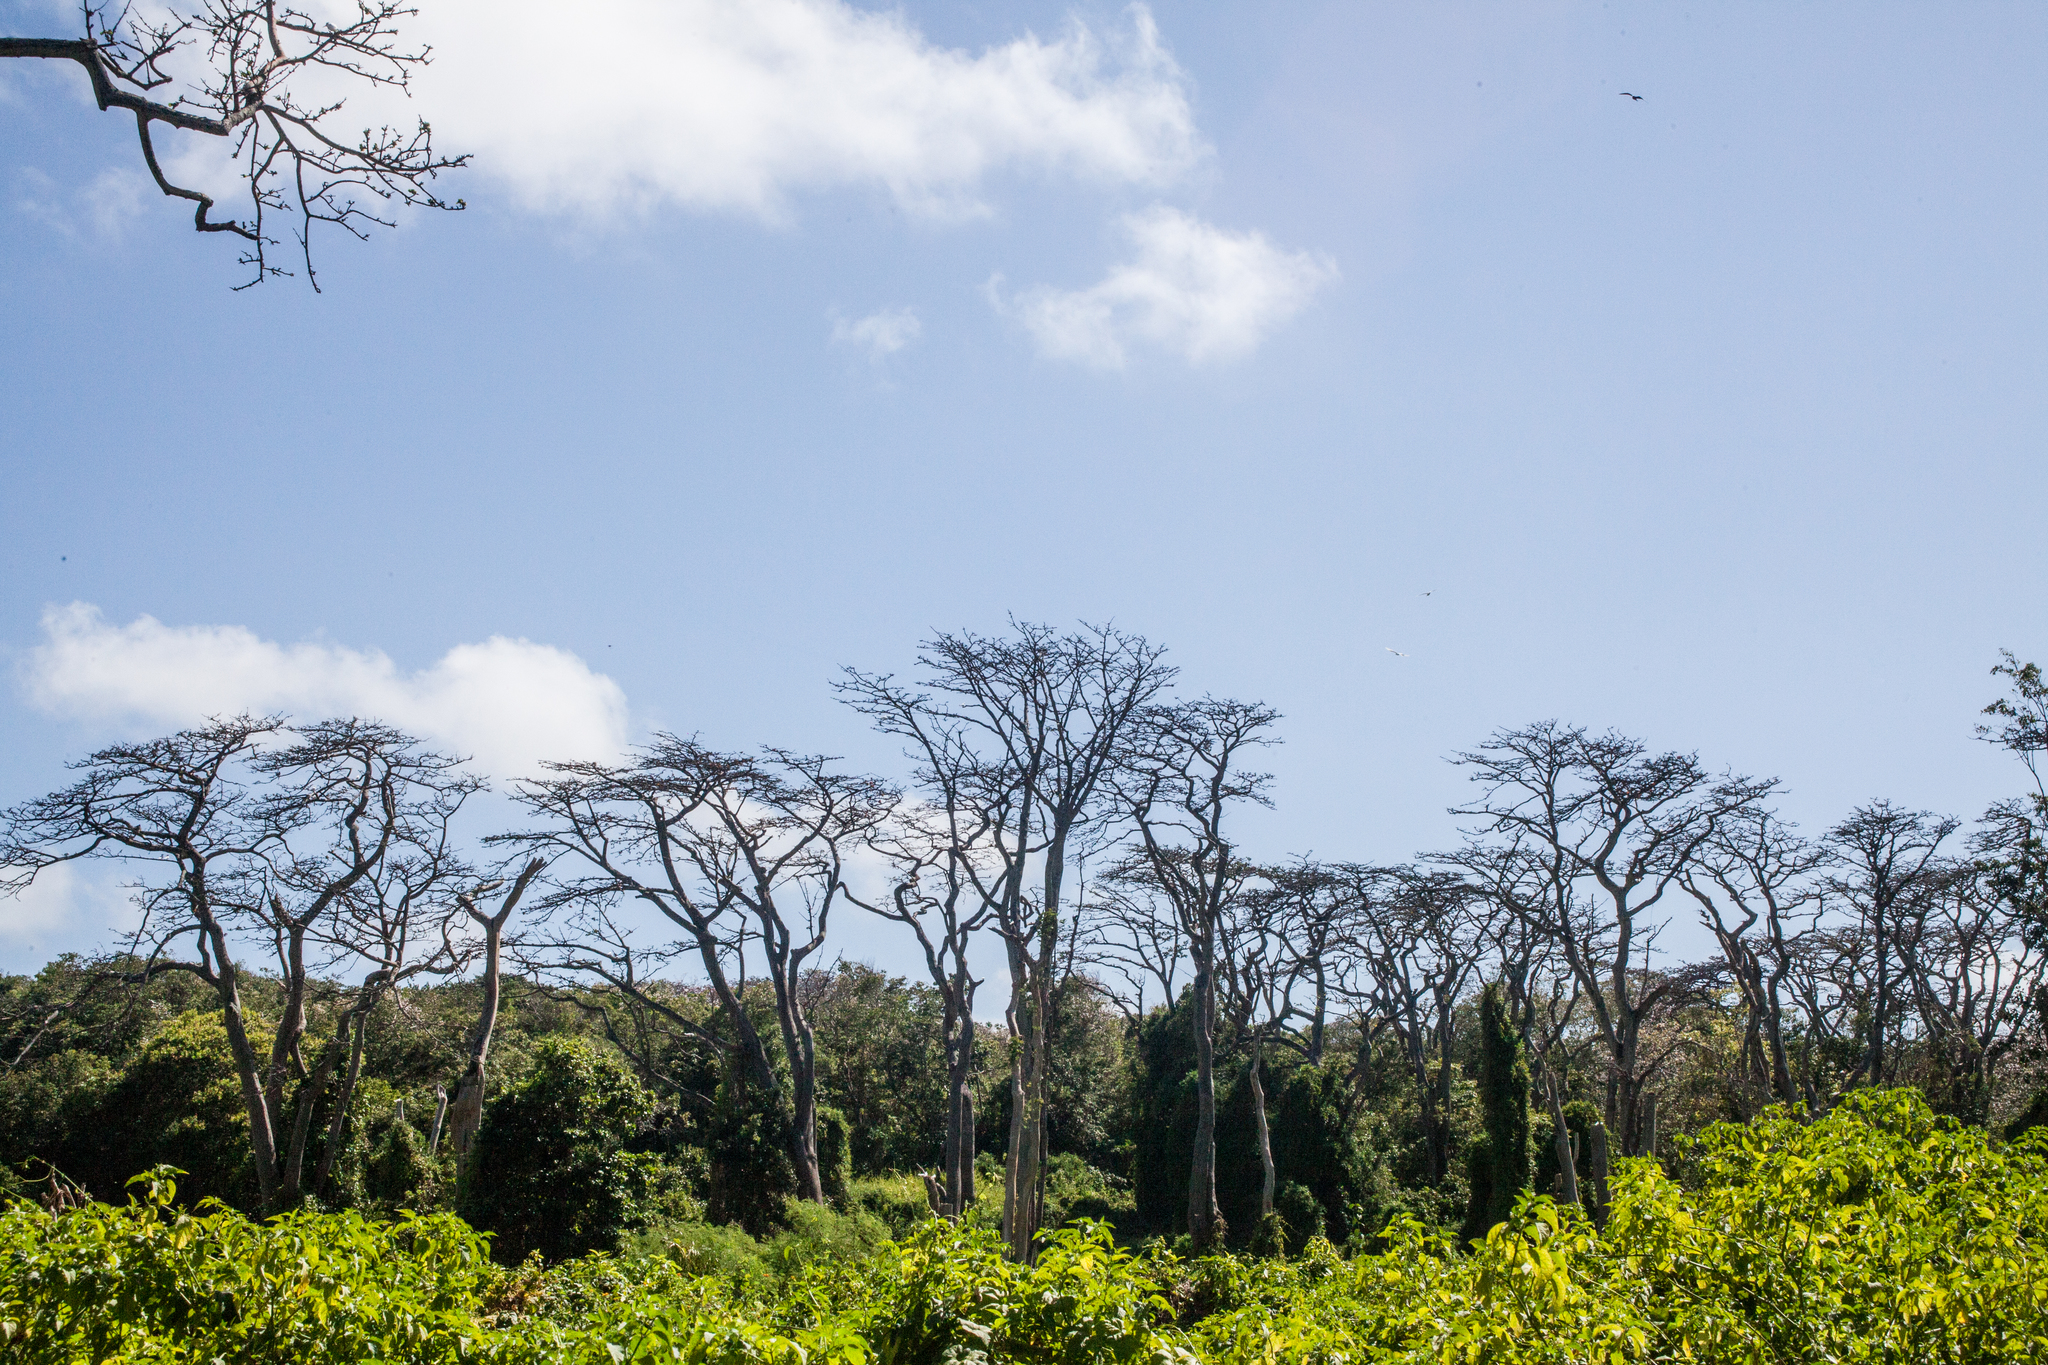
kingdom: Plantae
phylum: Tracheophyta
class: Magnoliopsida
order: Fabales
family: Fabaceae
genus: Erythrina
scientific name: Erythrina velutina
